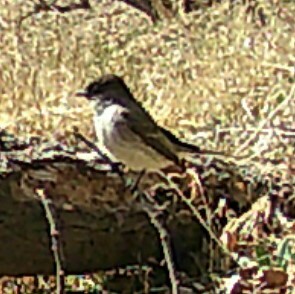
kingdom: Animalia
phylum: Chordata
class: Aves
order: Passeriformes
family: Tyrannidae
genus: Sayornis
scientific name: Sayornis phoebe
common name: Eastern phoebe
